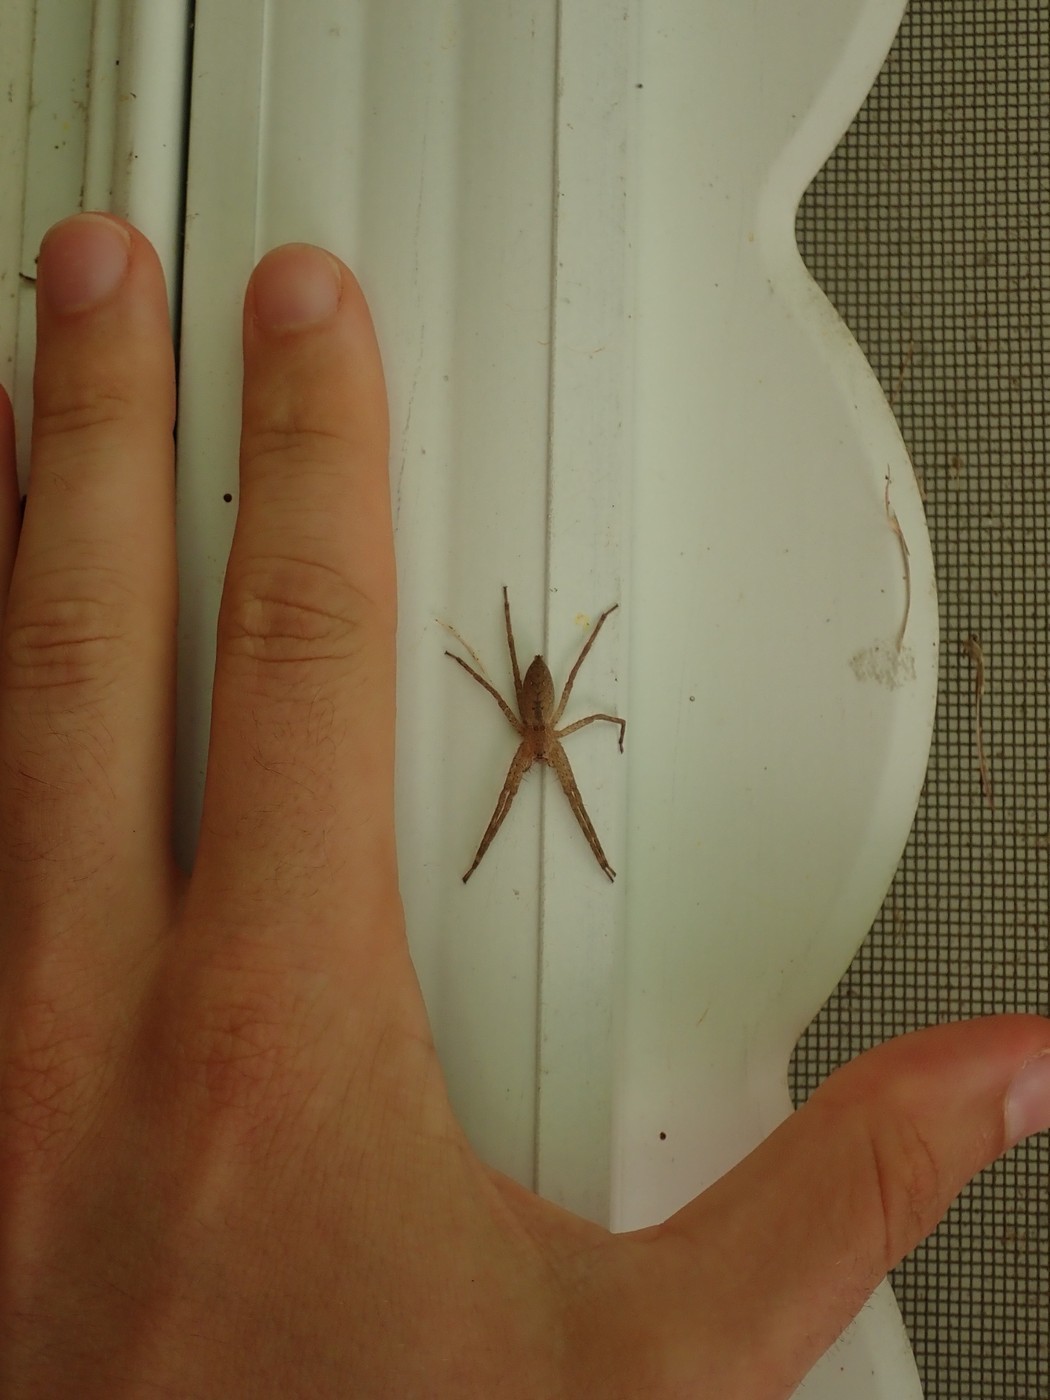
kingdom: Animalia
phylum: Arthropoda
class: Arachnida
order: Araneae
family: Pisauridae
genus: Pisaurina
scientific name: Pisaurina mira
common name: American nursery web spider
